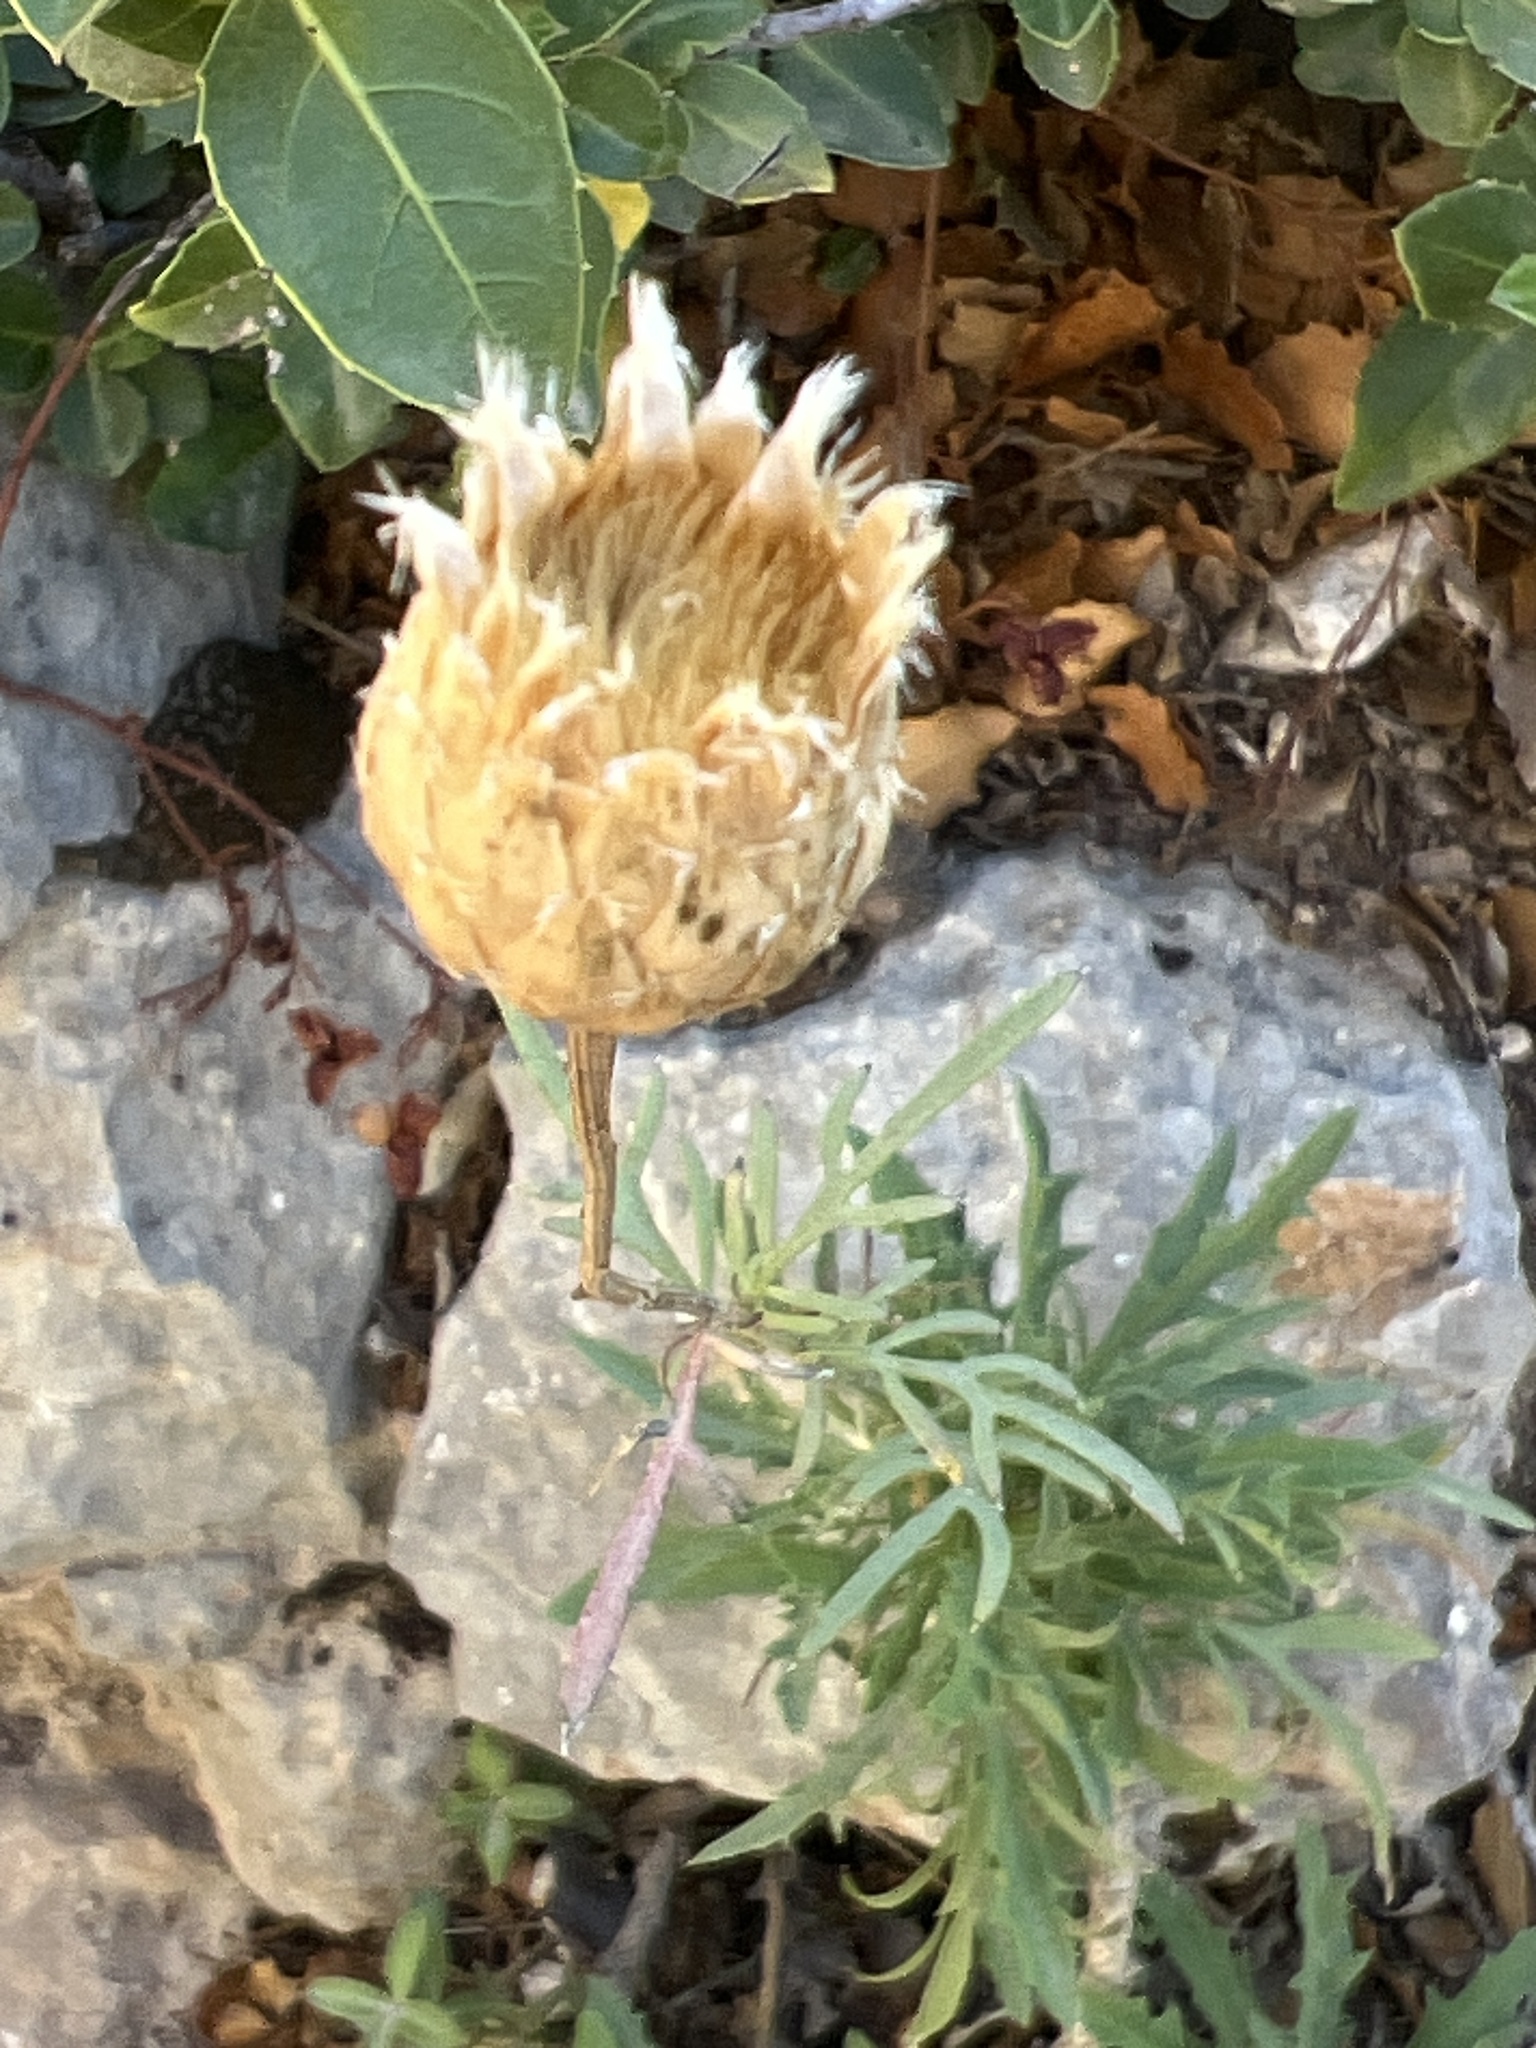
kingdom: Plantae
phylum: Tracheophyta
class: Magnoliopsida
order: Asterales
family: Asteraceae
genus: Cheirolophus
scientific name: Cheirolophus intybaceus
